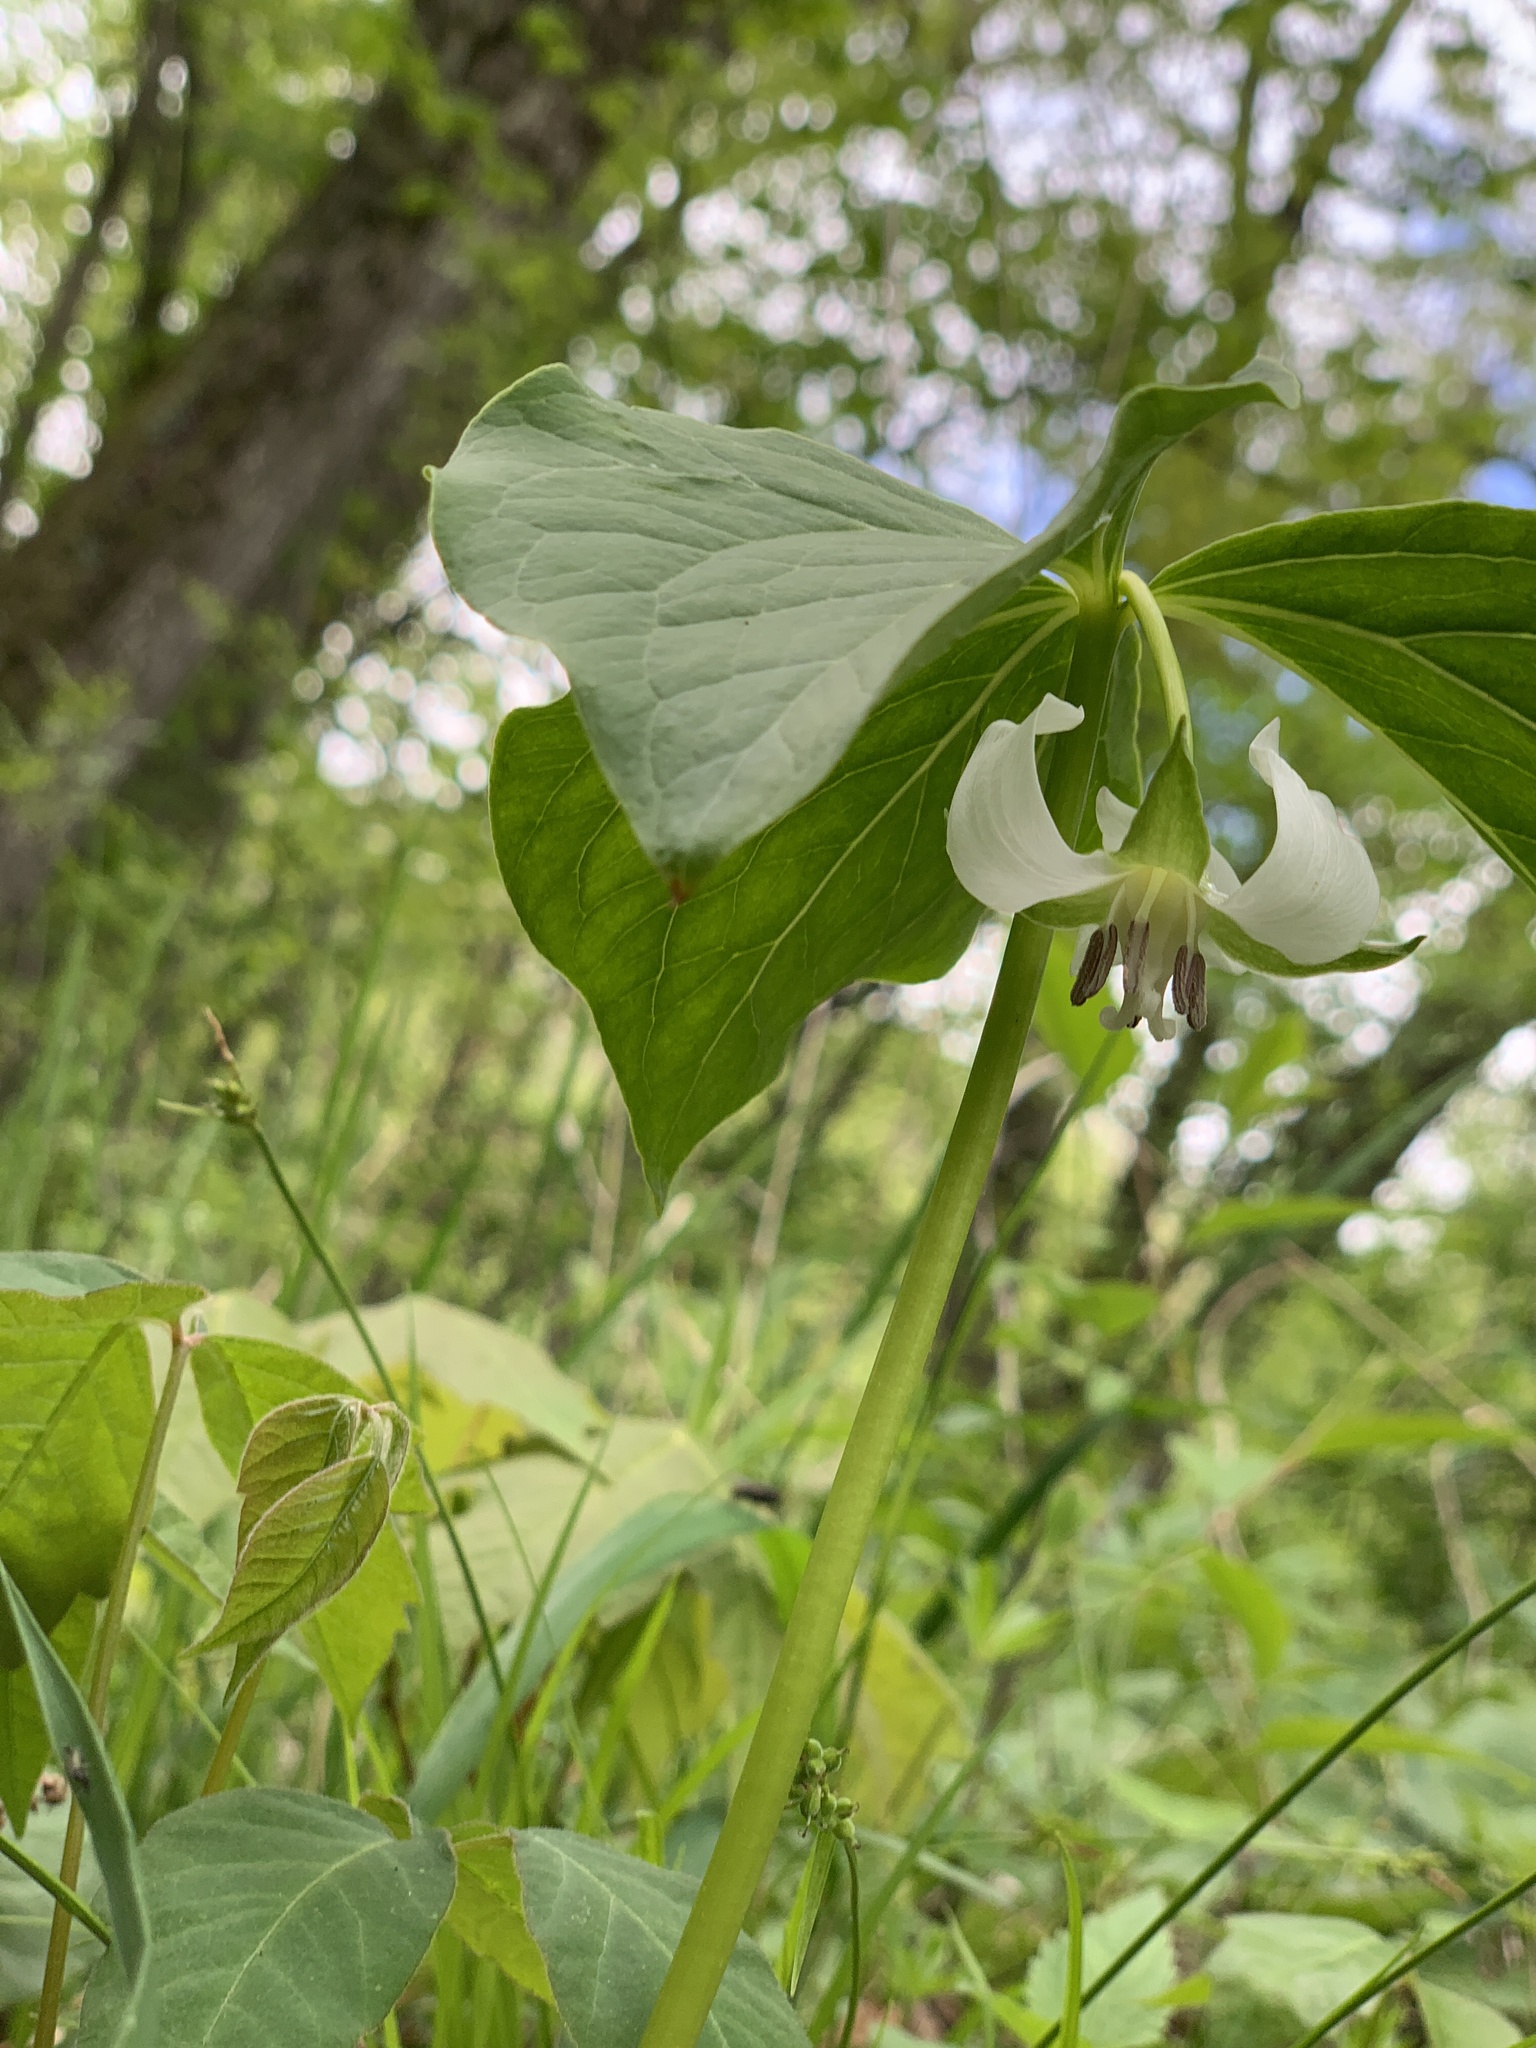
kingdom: Plantae
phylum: Tracheophyta
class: Liliopsida
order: Liliales
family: Melanthiaceae
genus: Trillium
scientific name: Trillium cernuum
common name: Nodding trillium
